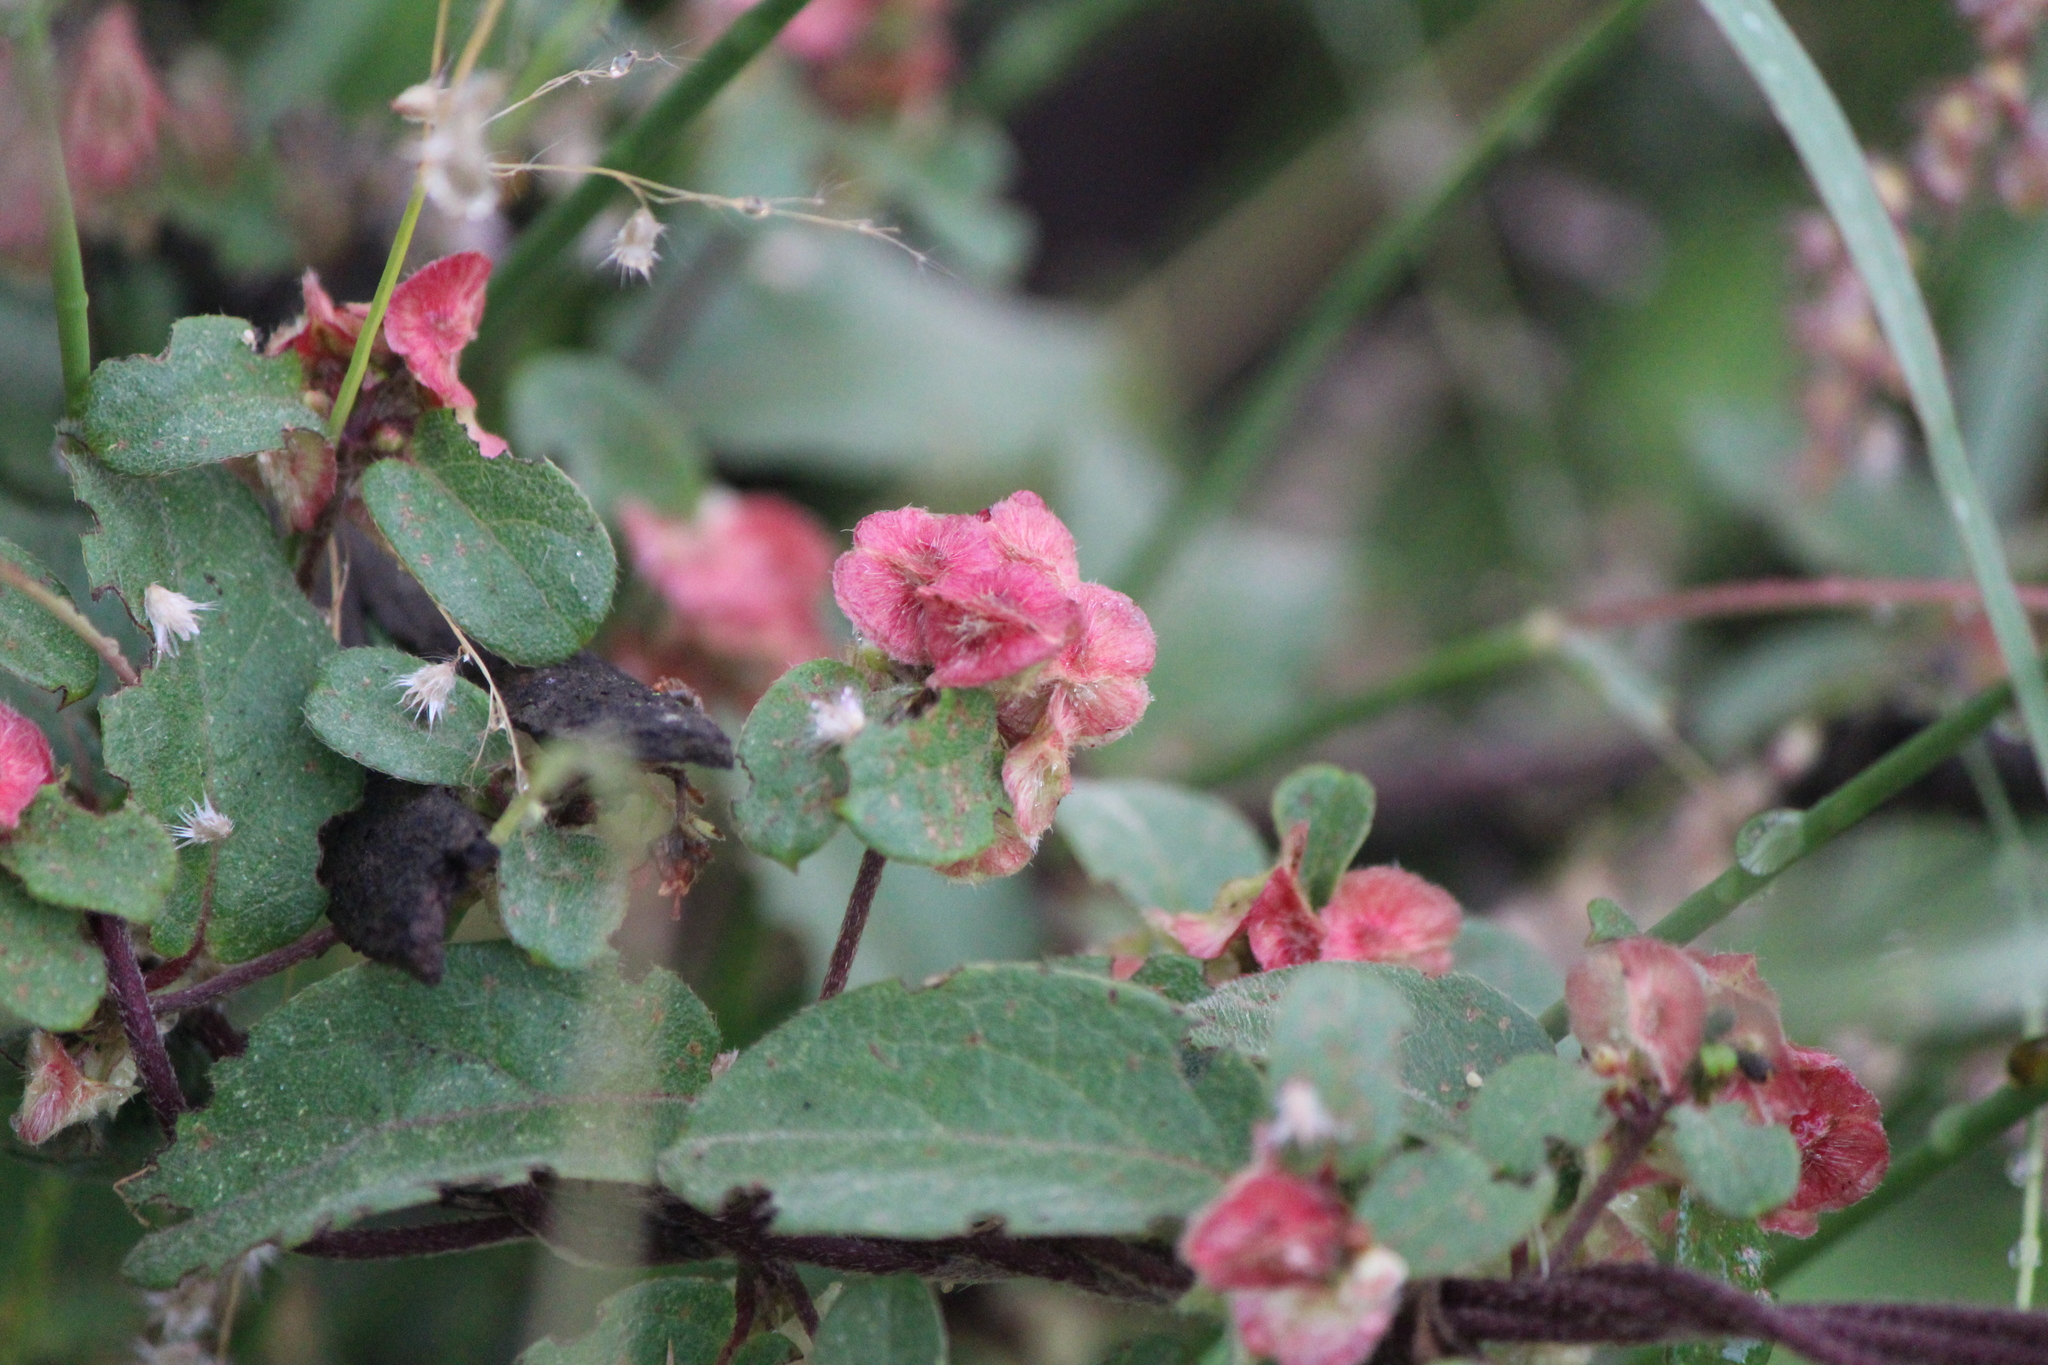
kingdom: Plantae
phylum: Tracheophyta
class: Magnoliopsida
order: Malpighiales
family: Malpighiaceae
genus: Gaudichaudia
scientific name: Gaudichaudia cynanchoides
